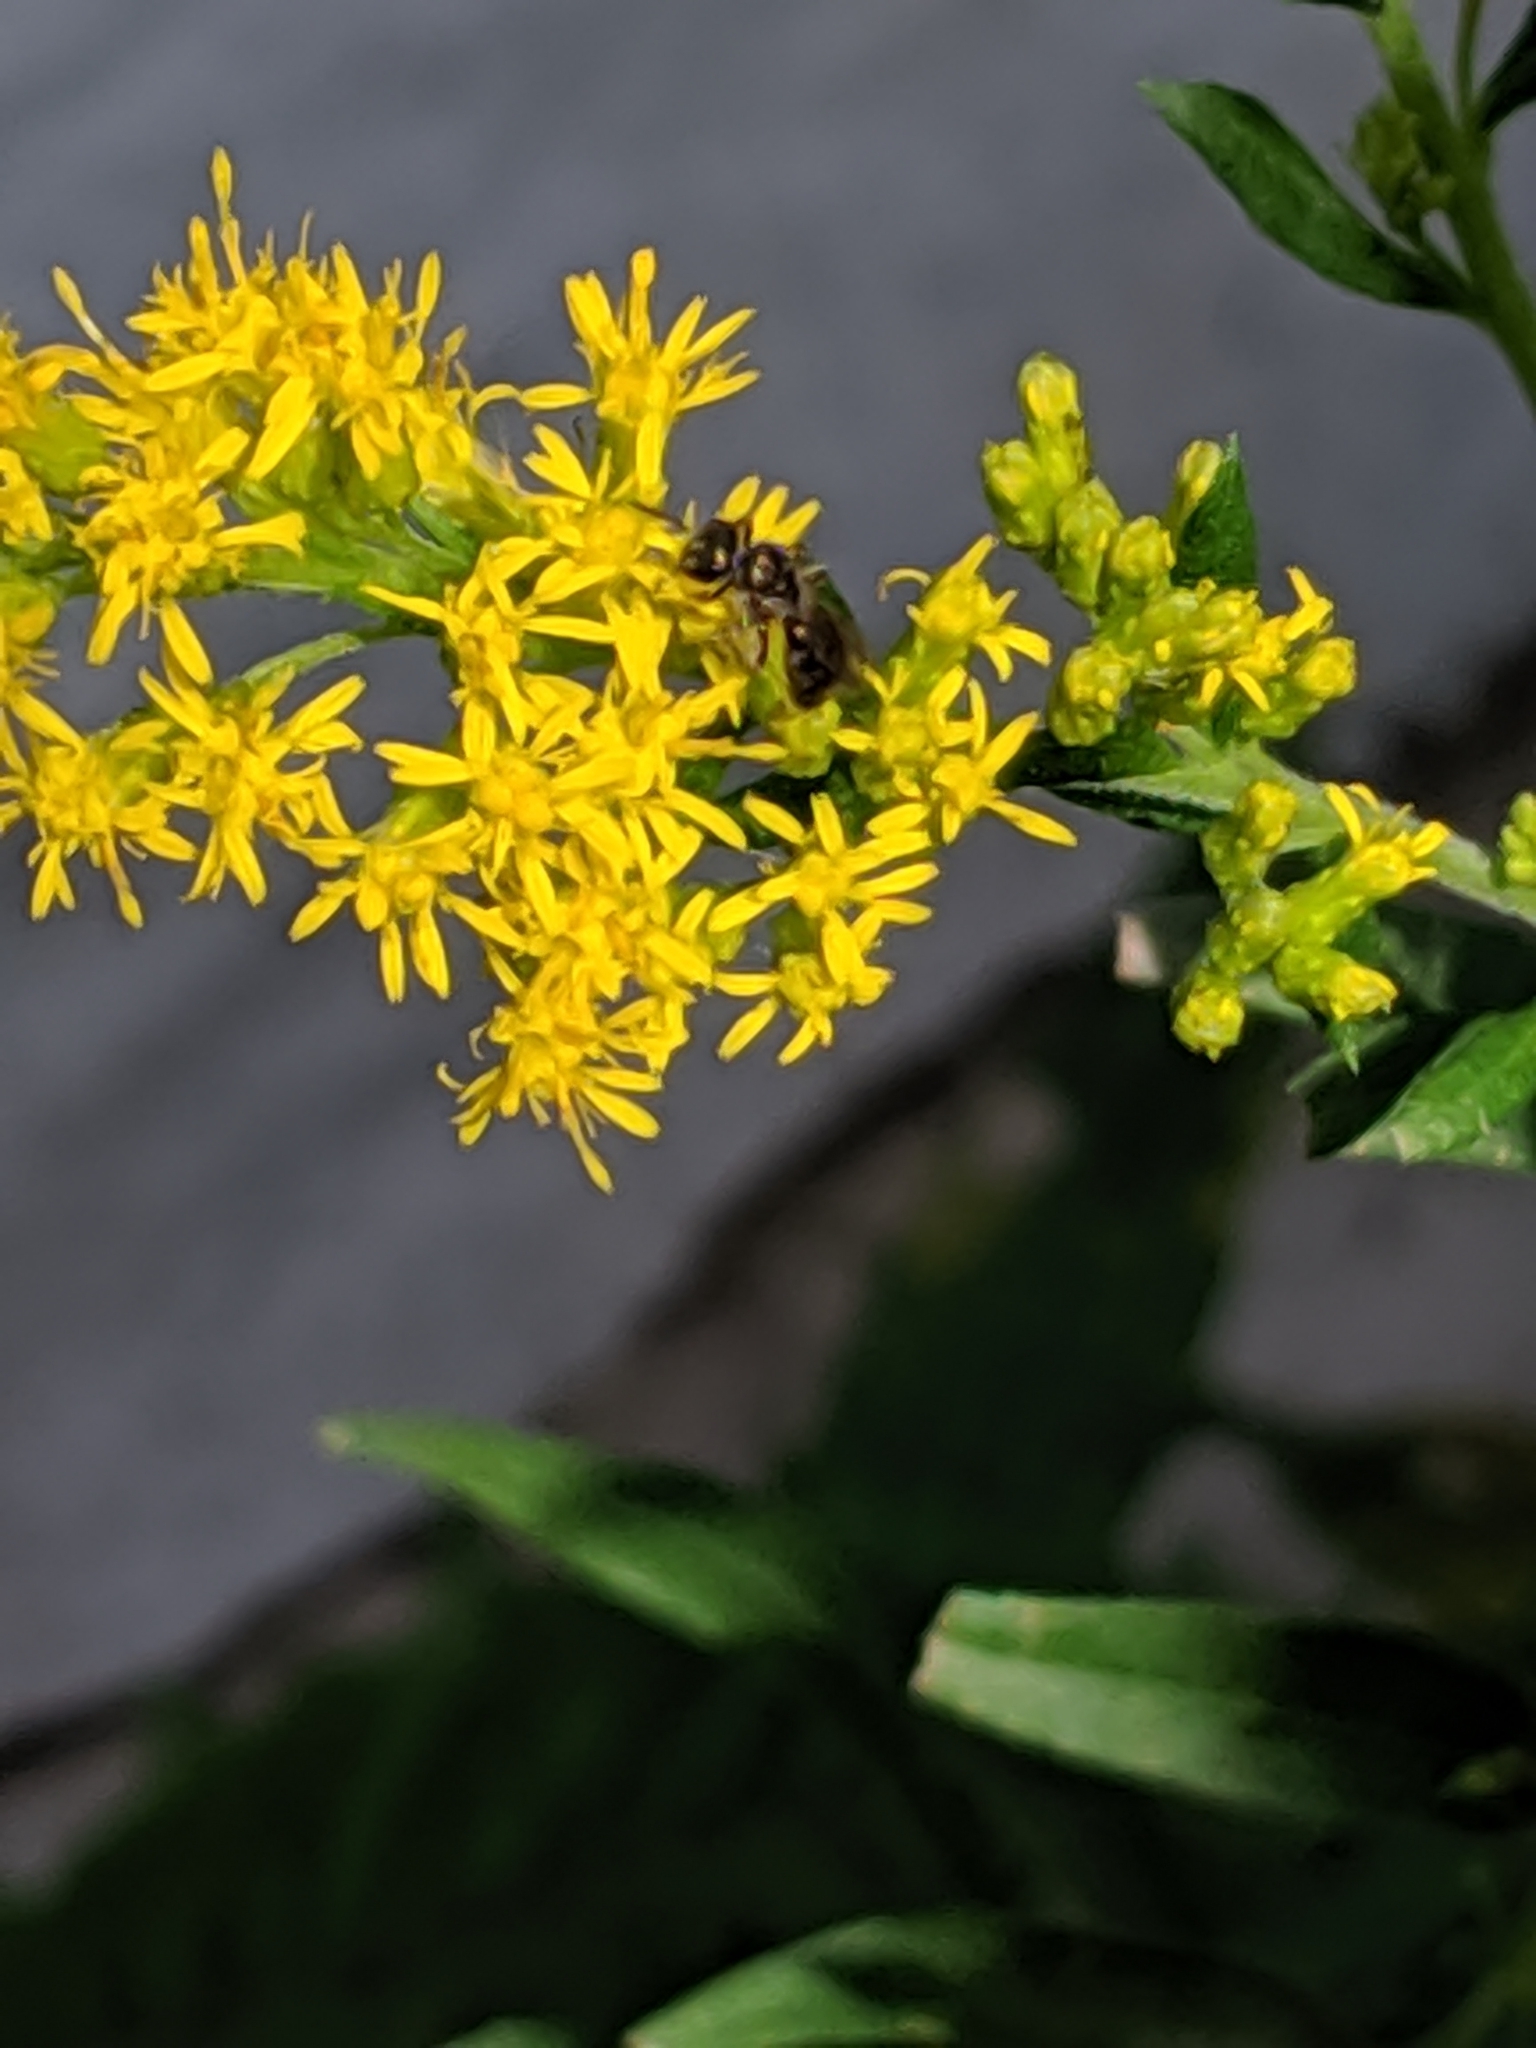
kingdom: Animalia
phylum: Arthropoda
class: Insecta
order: Hymenoptera
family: Halictidae
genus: Dialictus
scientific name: Dialictus
